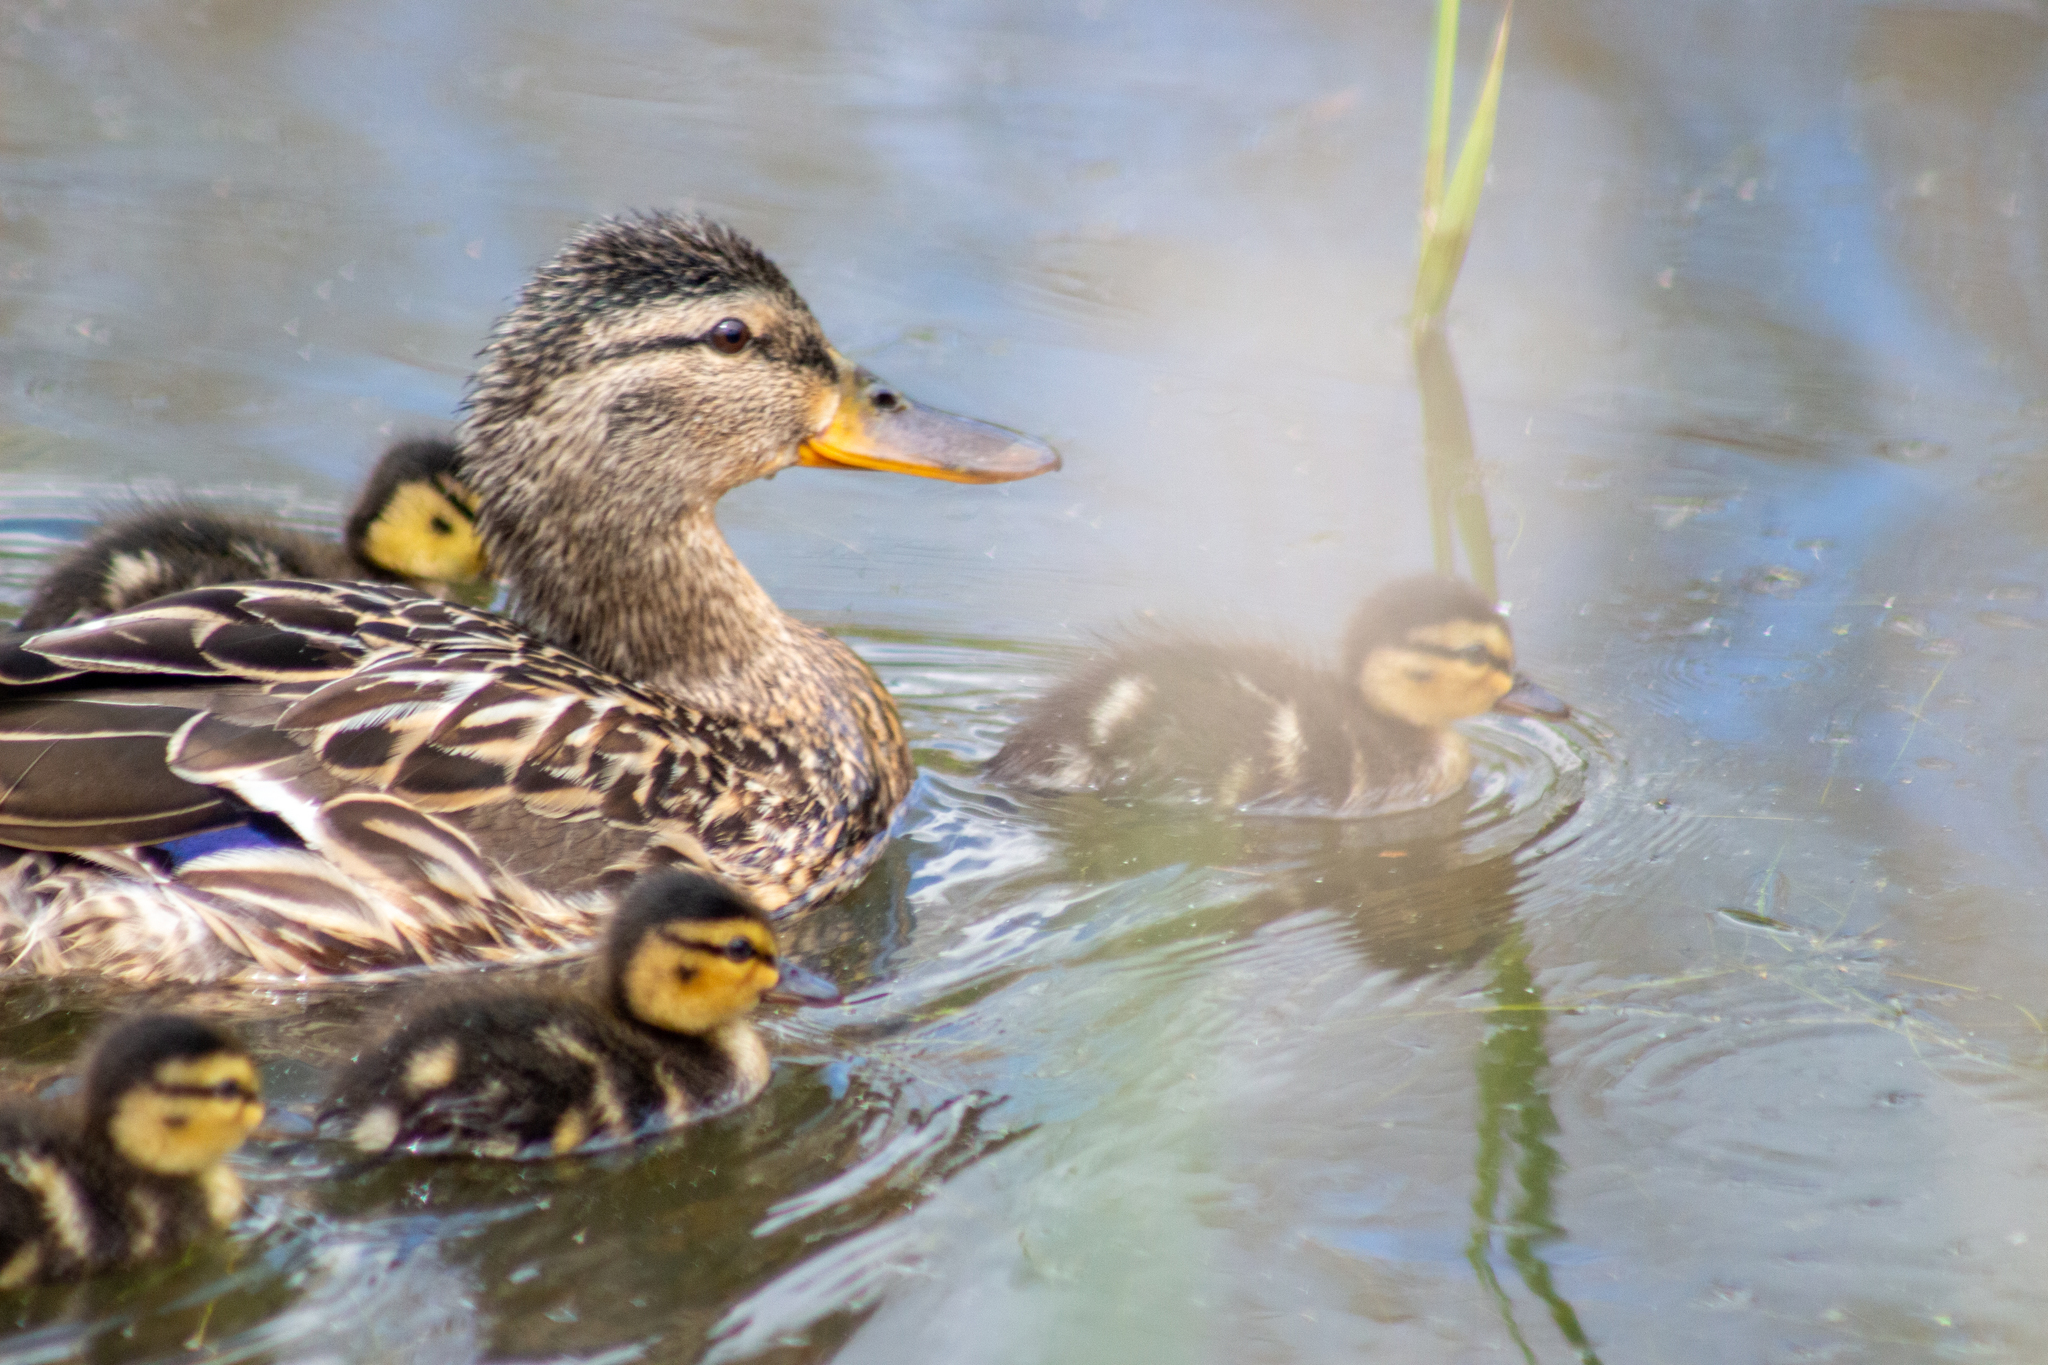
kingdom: Animalia
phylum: Chordata
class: Aves
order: Anseriformes
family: Anatidae
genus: Anas
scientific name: Anas platyrhynchos
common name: Mallard
